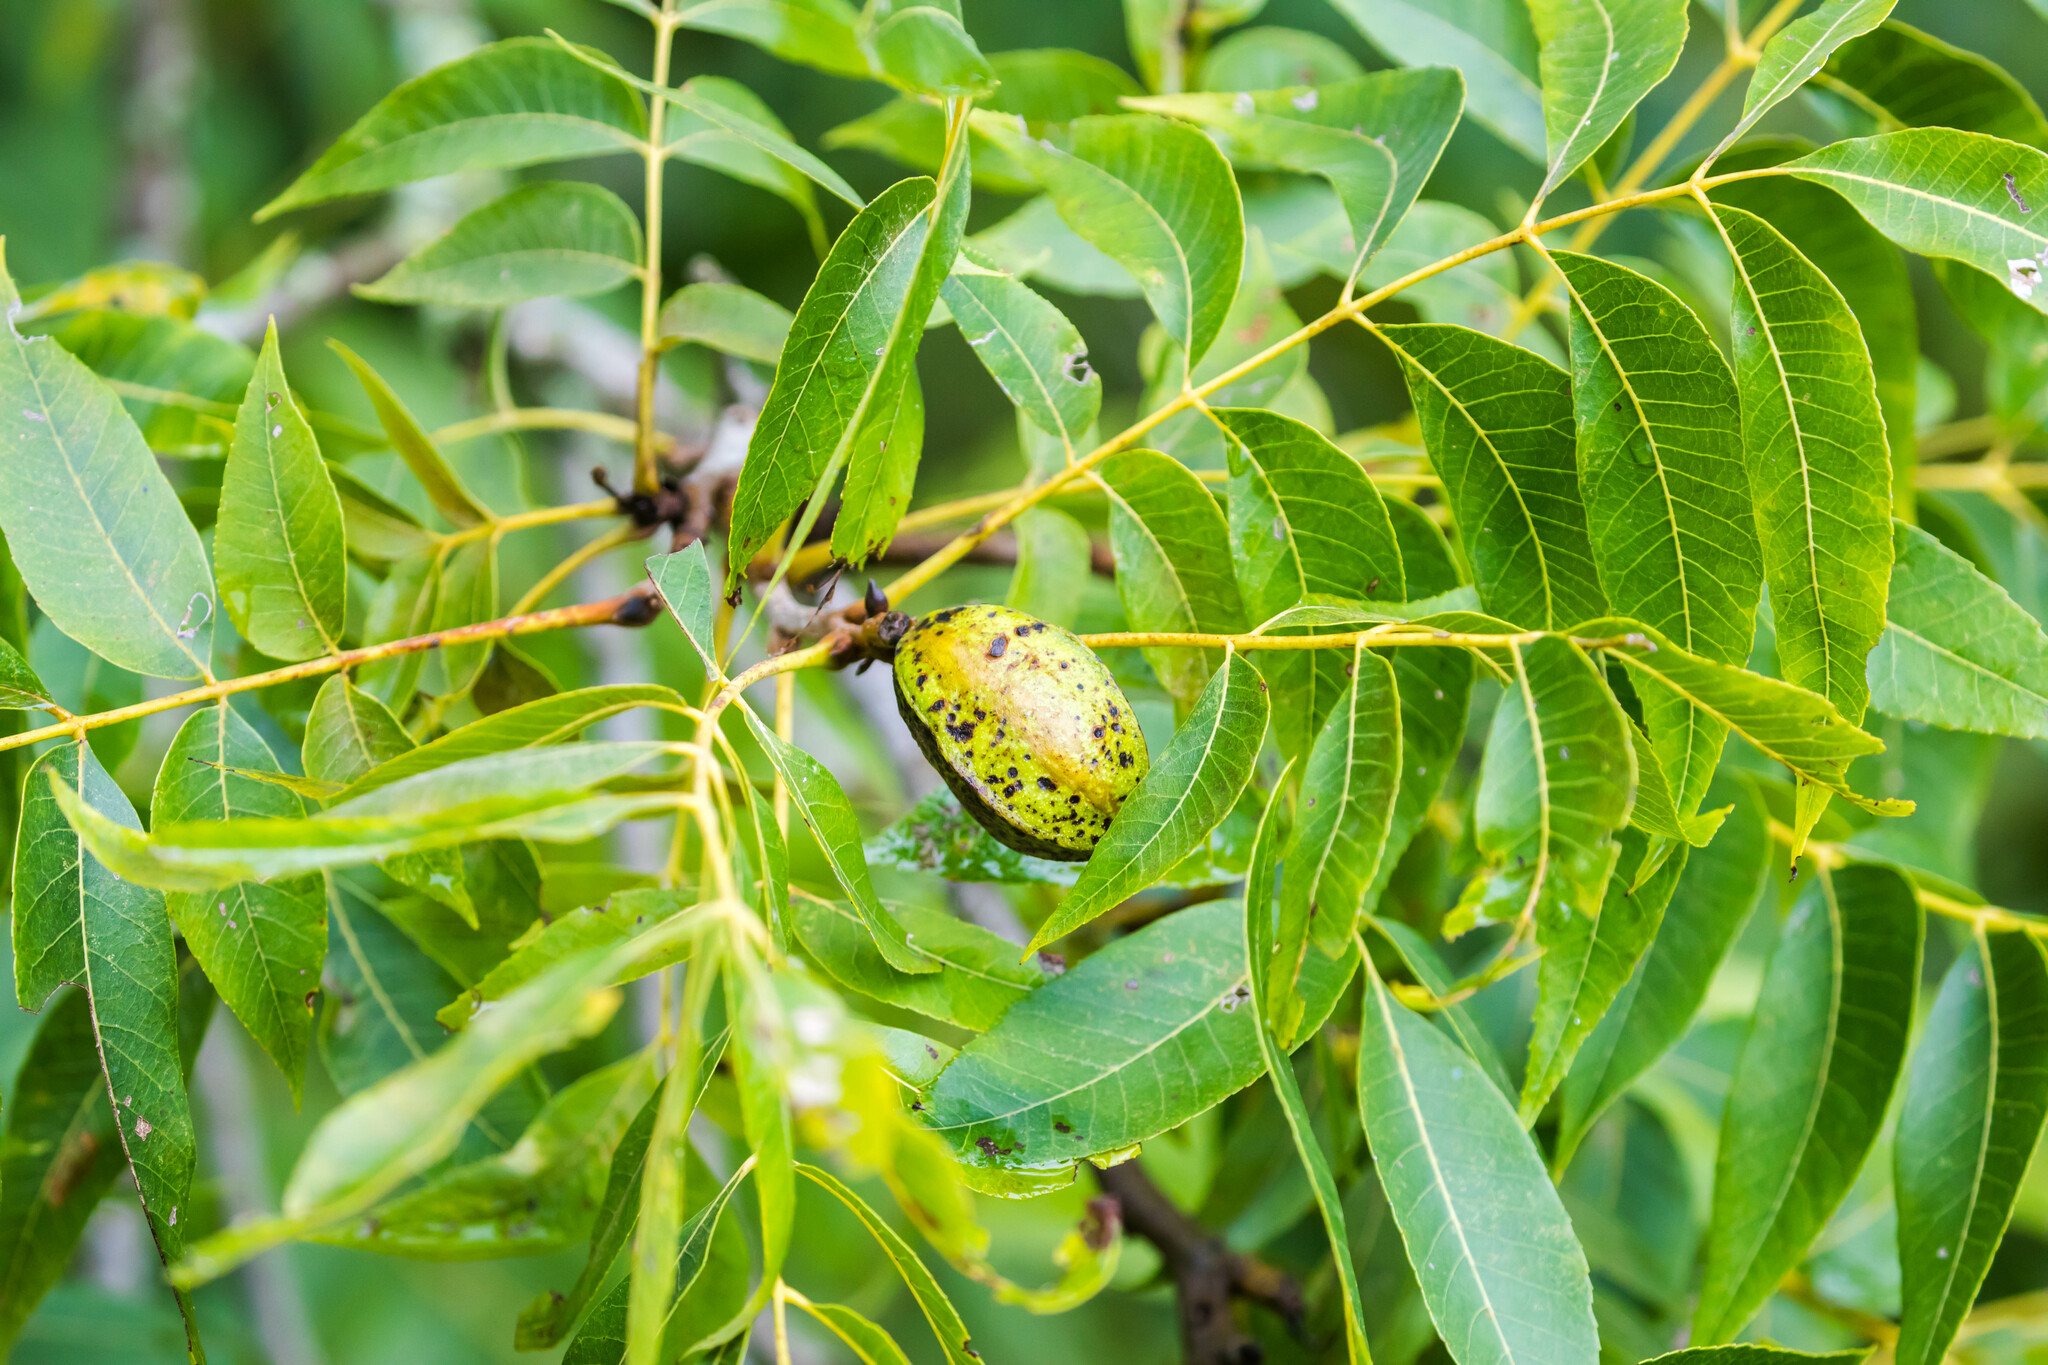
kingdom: Plantae
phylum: Tracheophyta
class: Magnoliopsida
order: Fagales
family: Juglandaceae
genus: Carya
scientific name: Carya illinoinensis
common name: Pecan
